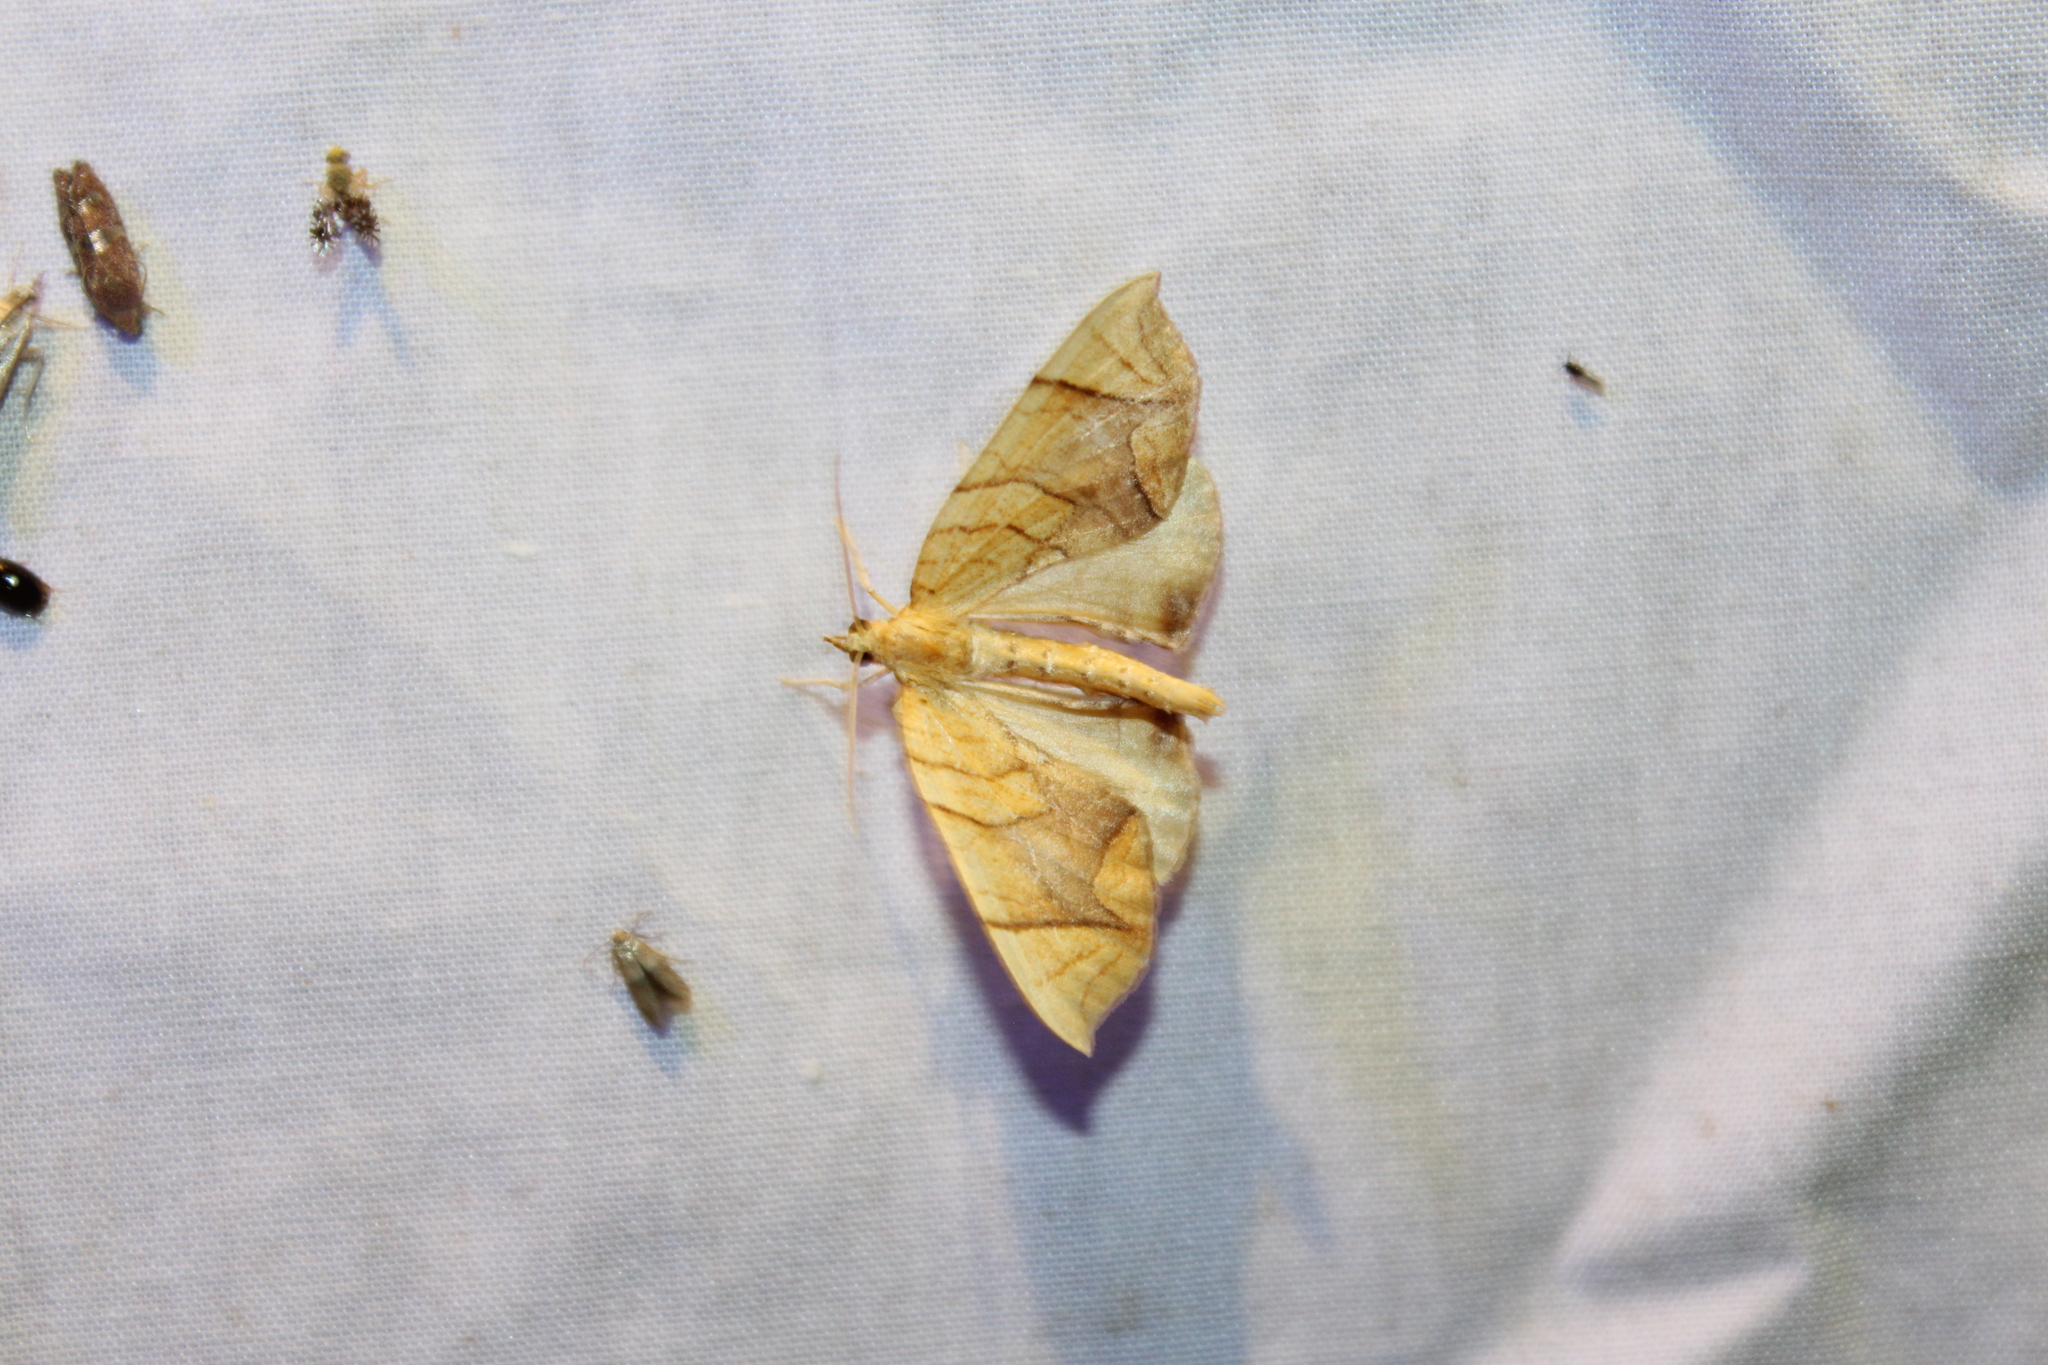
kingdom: Animalia
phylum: Arthropoda
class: Insecta
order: Lepidoptera
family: Geometridae
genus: Eulithis
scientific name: Eulithis
